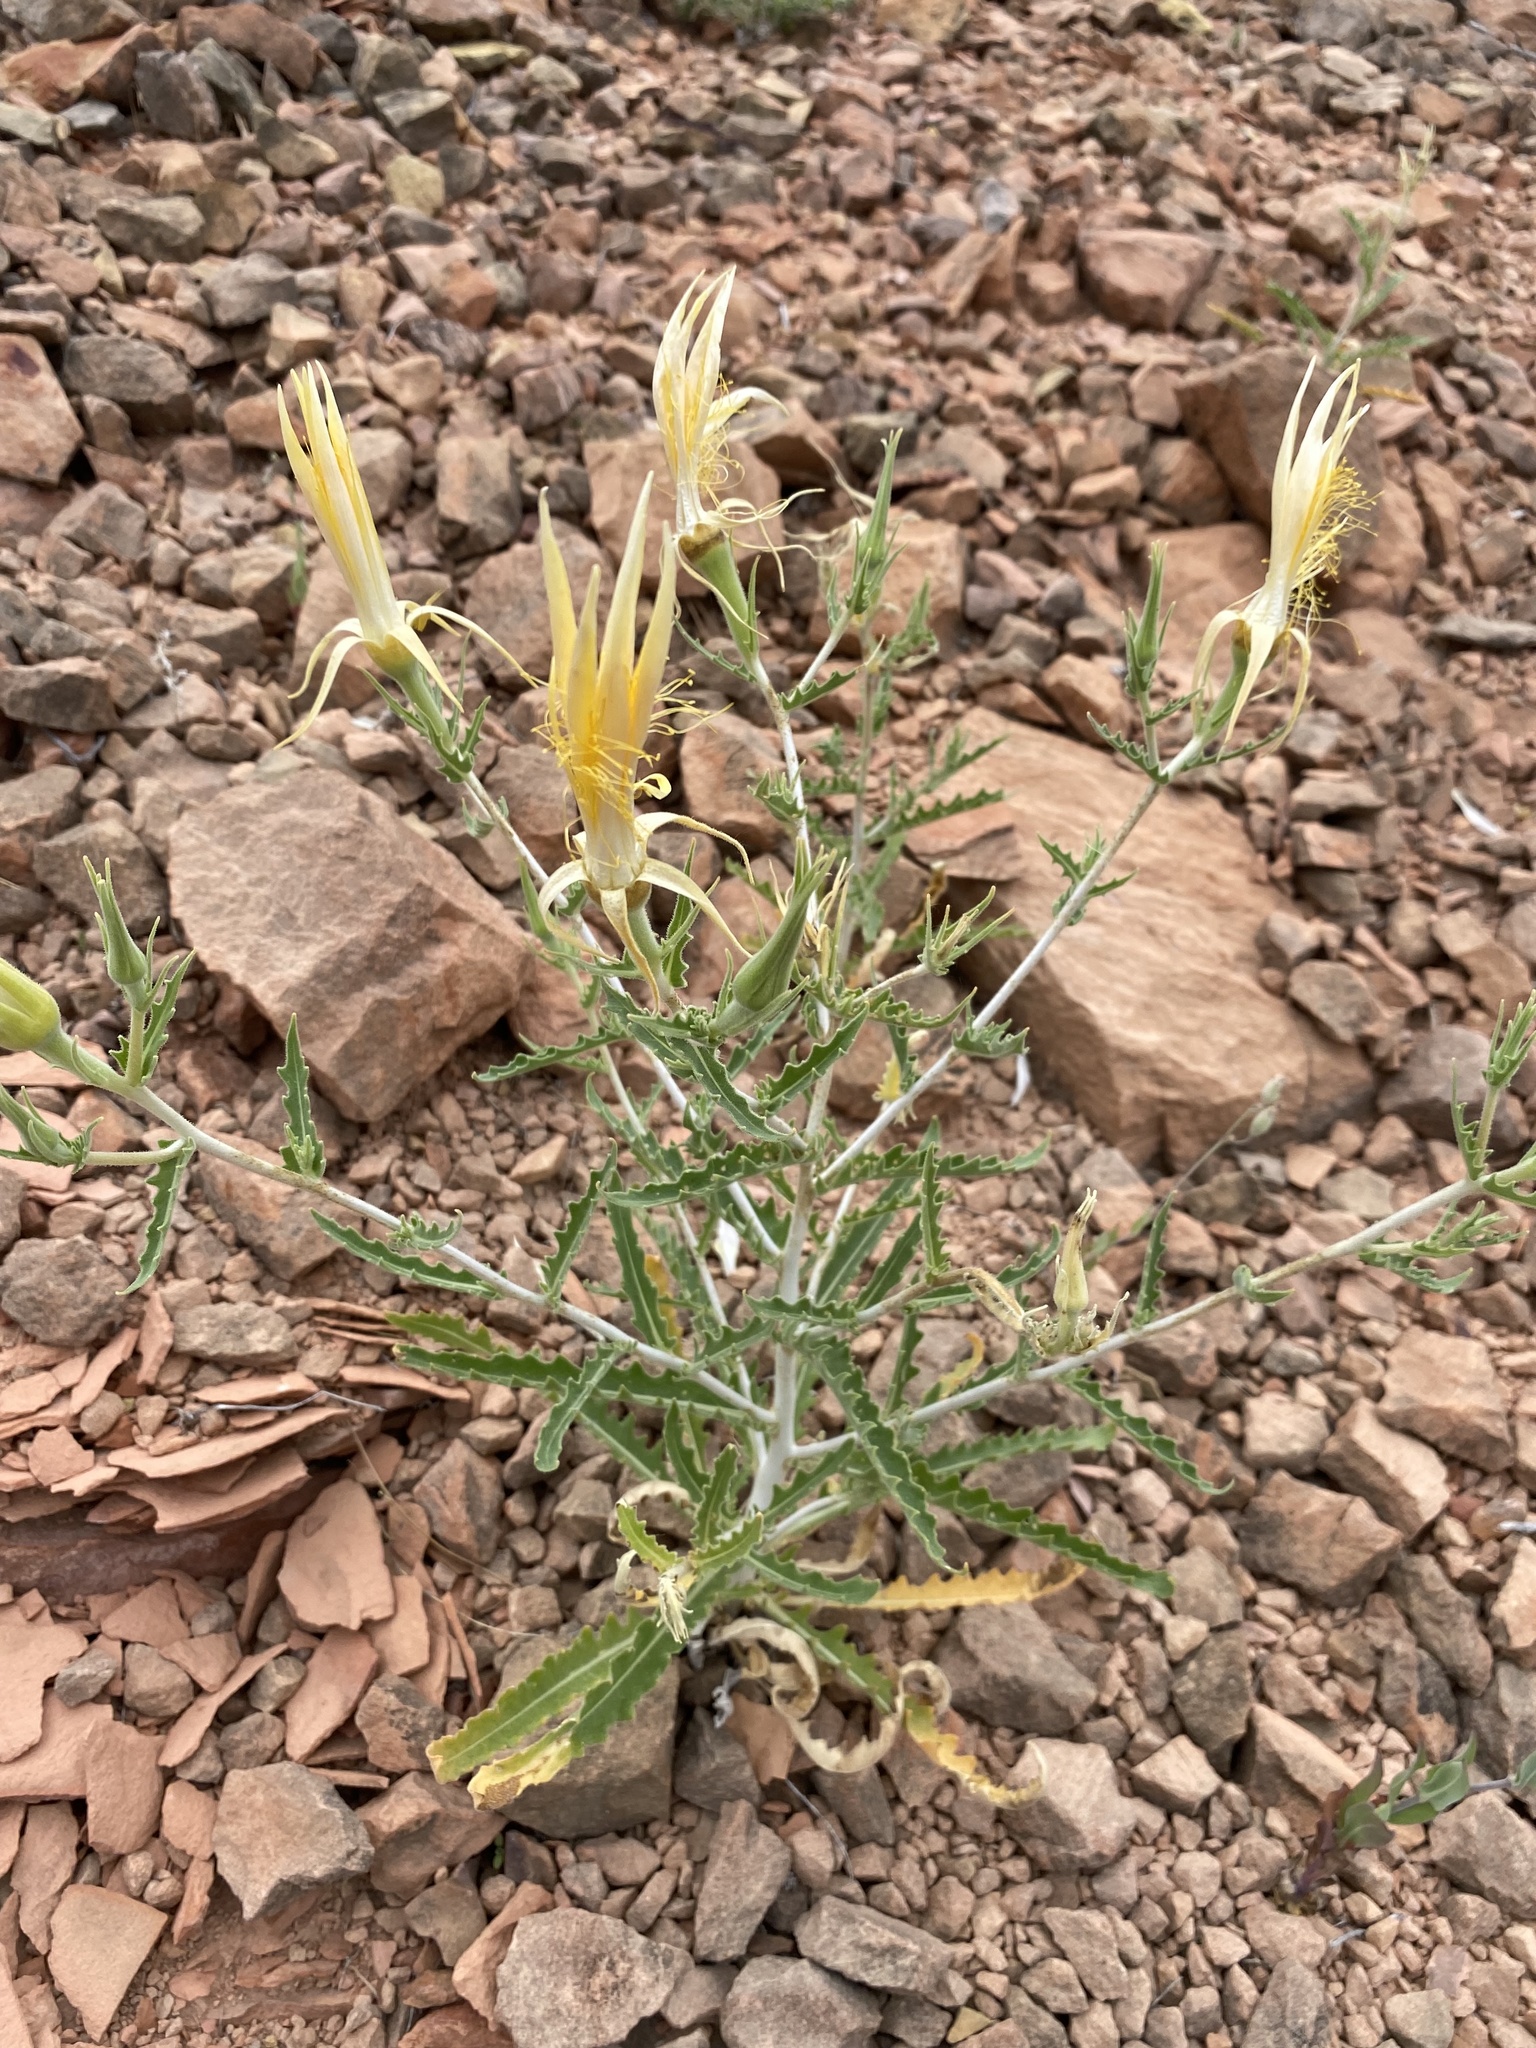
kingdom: Plantae
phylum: Tracheophyta
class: Magnoliopsida
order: Cornales
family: Loasaceae
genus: Mentzelia
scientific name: Mentzelia laevicaulis
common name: Smooth-stem blazingstar
